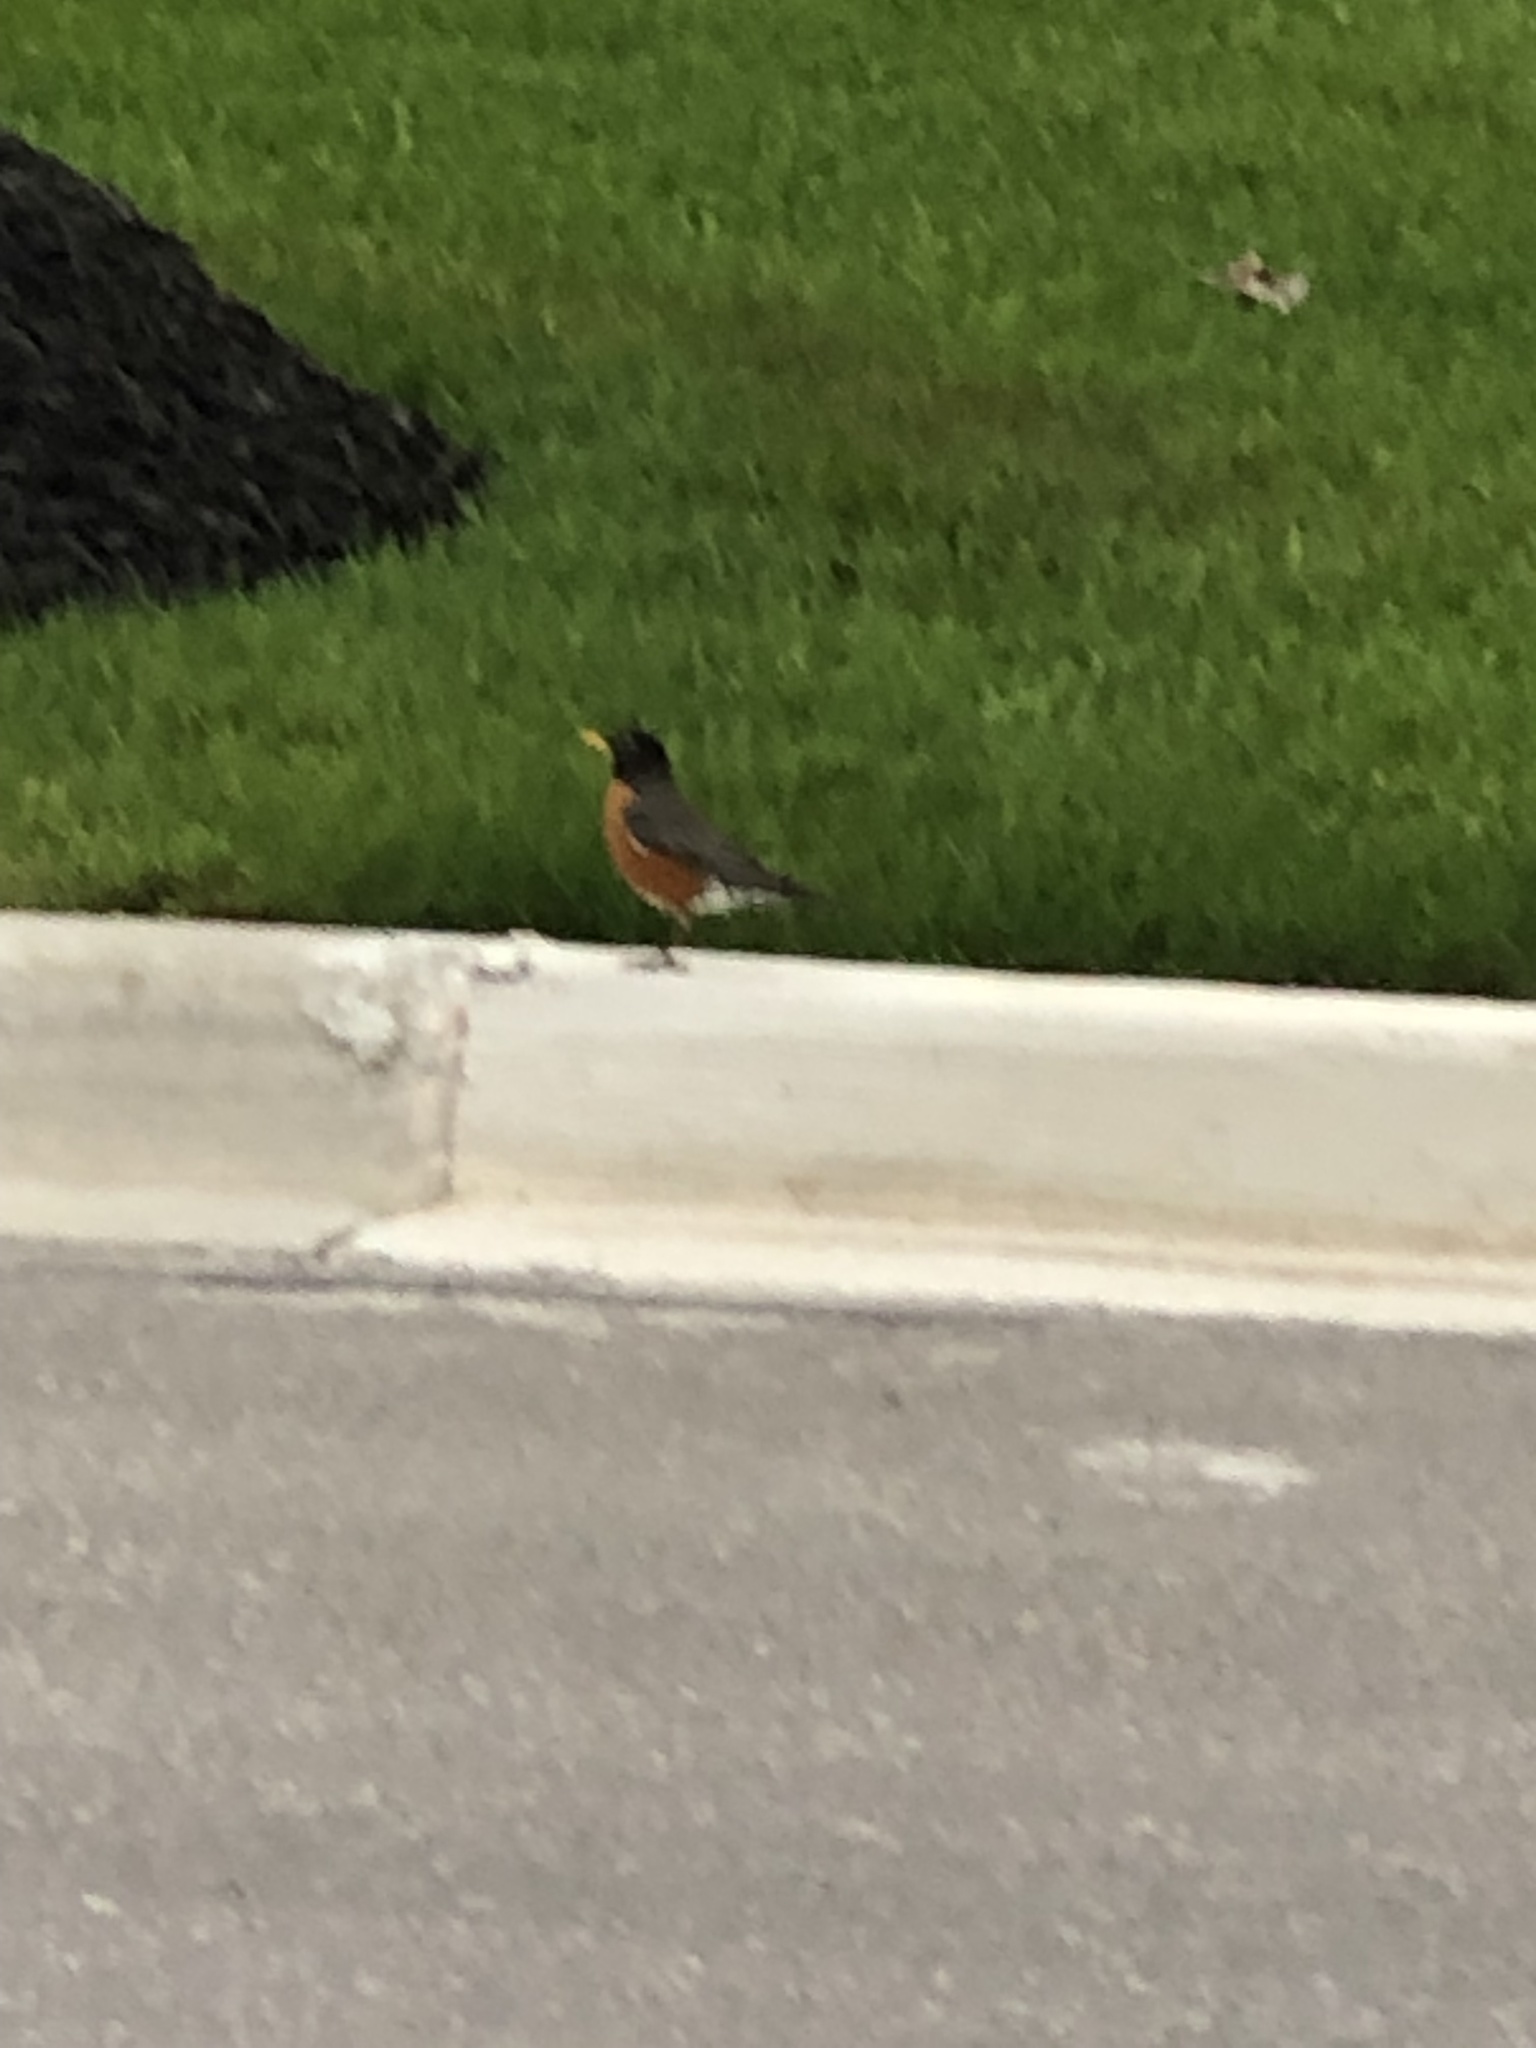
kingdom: Animalia
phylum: Chordata
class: Aves
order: Passeriformes
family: Turdidae
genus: Turdus
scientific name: Turdus migratorius
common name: American robin
